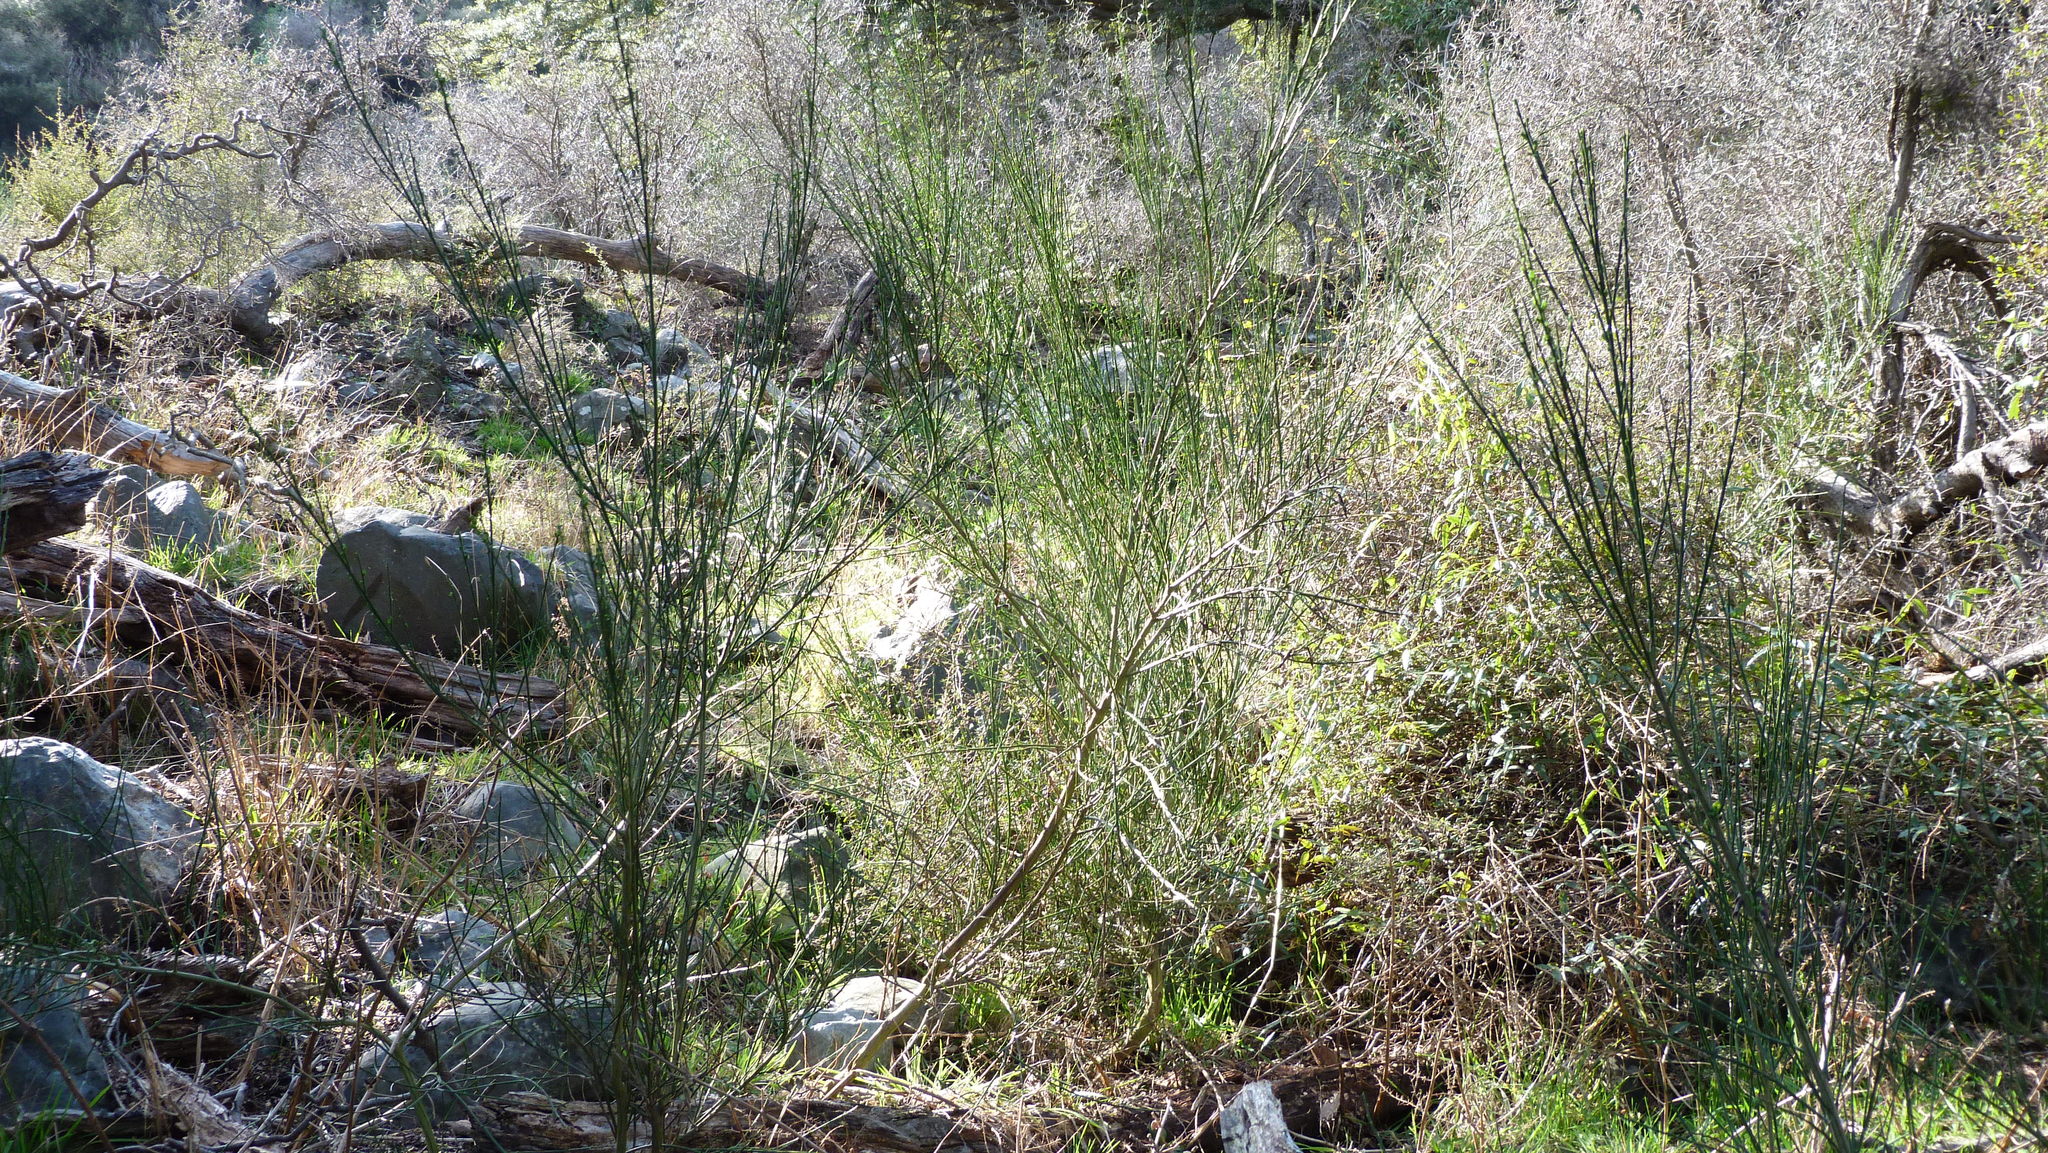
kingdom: Plantae
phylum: Tracheophyta
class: Magnoliopsida
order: Fabales
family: Fabaceae
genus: Cytisus
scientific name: Cytisus scoparius
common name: Scotch broom
